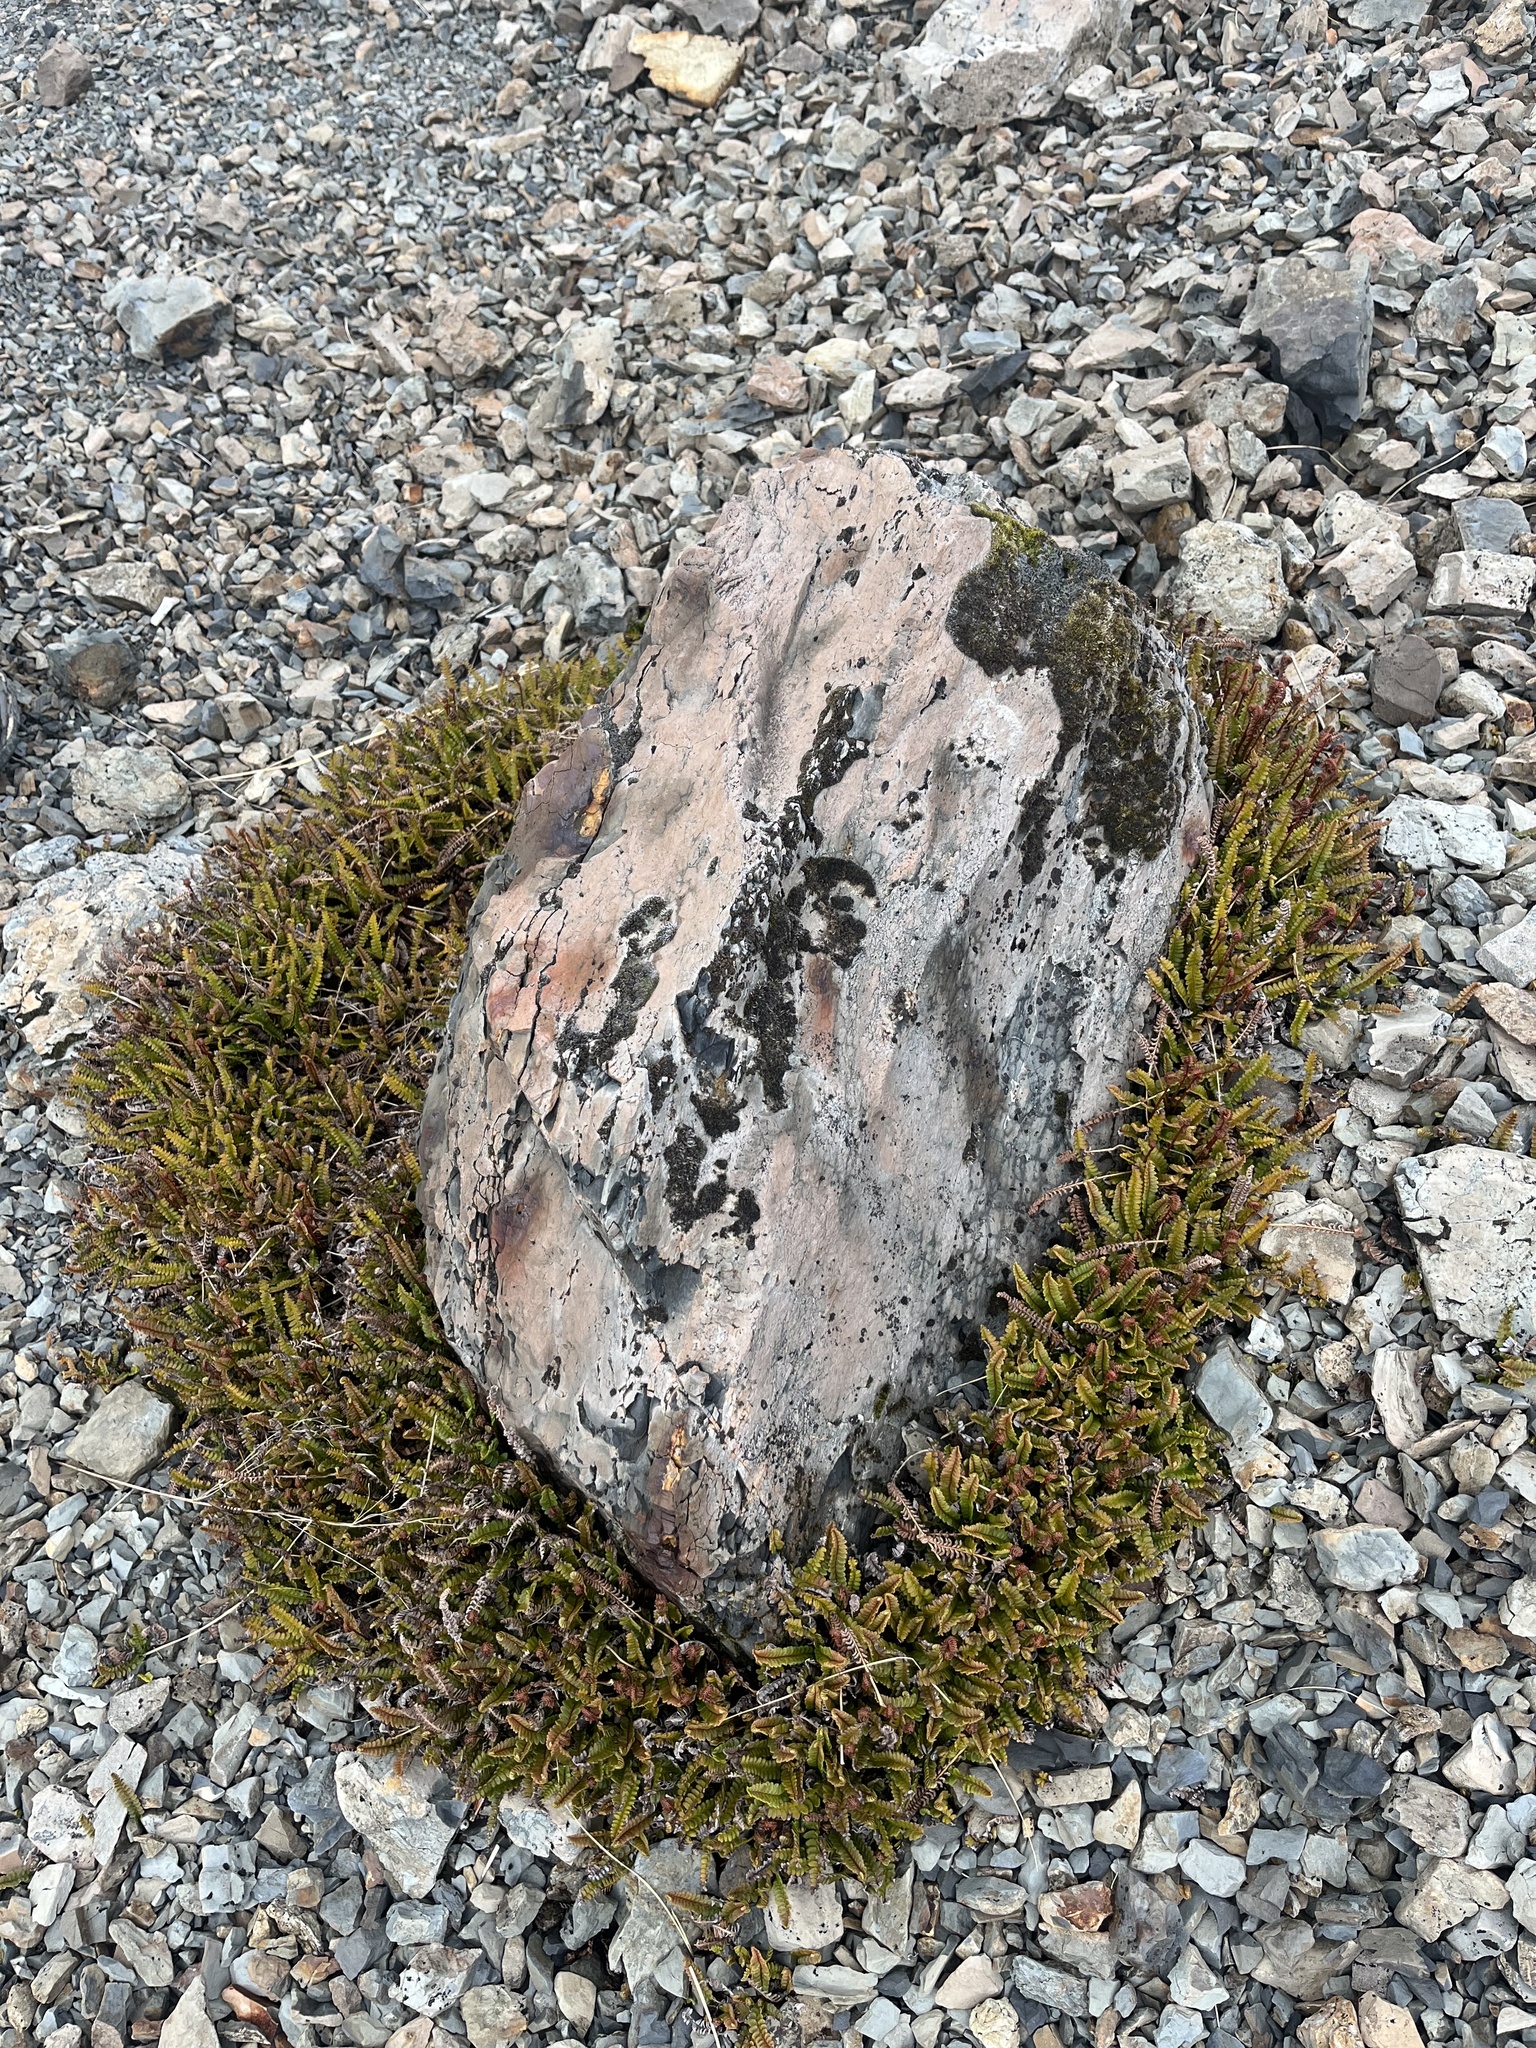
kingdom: Plantae
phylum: Tracheophyta
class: Polypodiopsida
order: Polypodiales
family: Blechnaceae
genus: Austroblechnum
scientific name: Austroblechnum penna-marina
